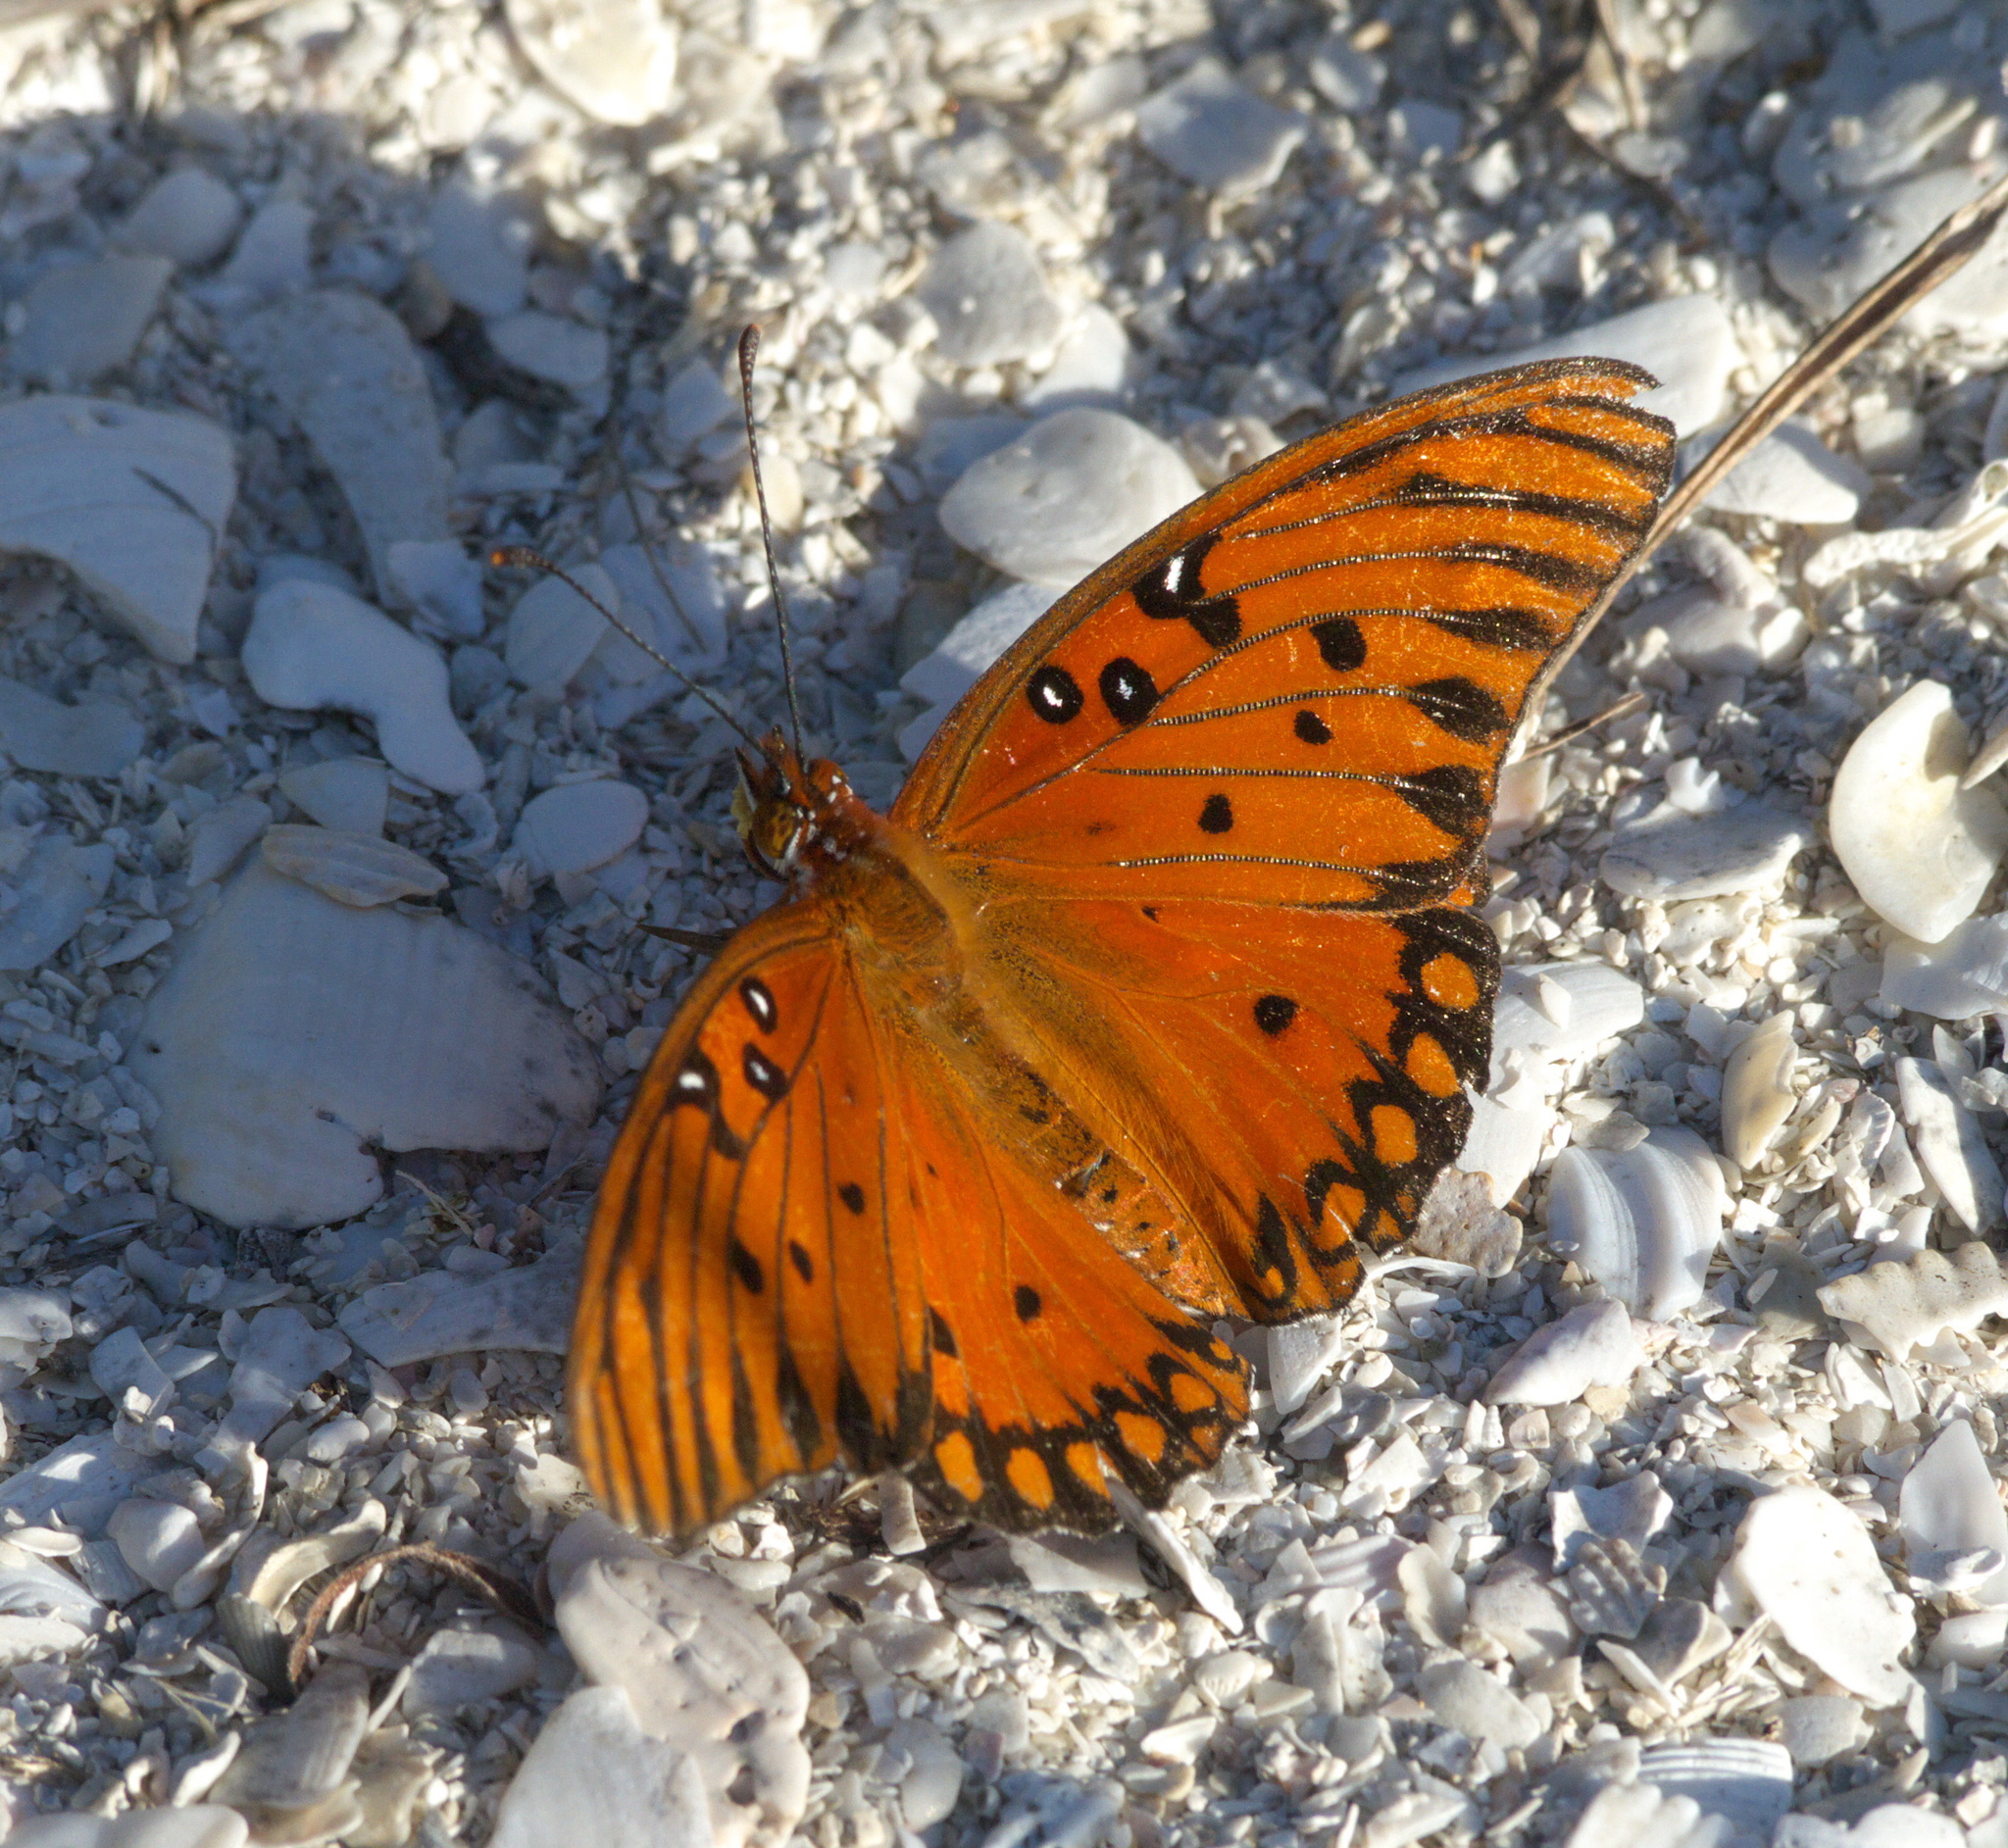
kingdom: Animalia
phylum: Arthropoda
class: Insecta
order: Lepidoptera
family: Nymphalidae
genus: Dione
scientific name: Dione vanillae
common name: Gulf fritillary
